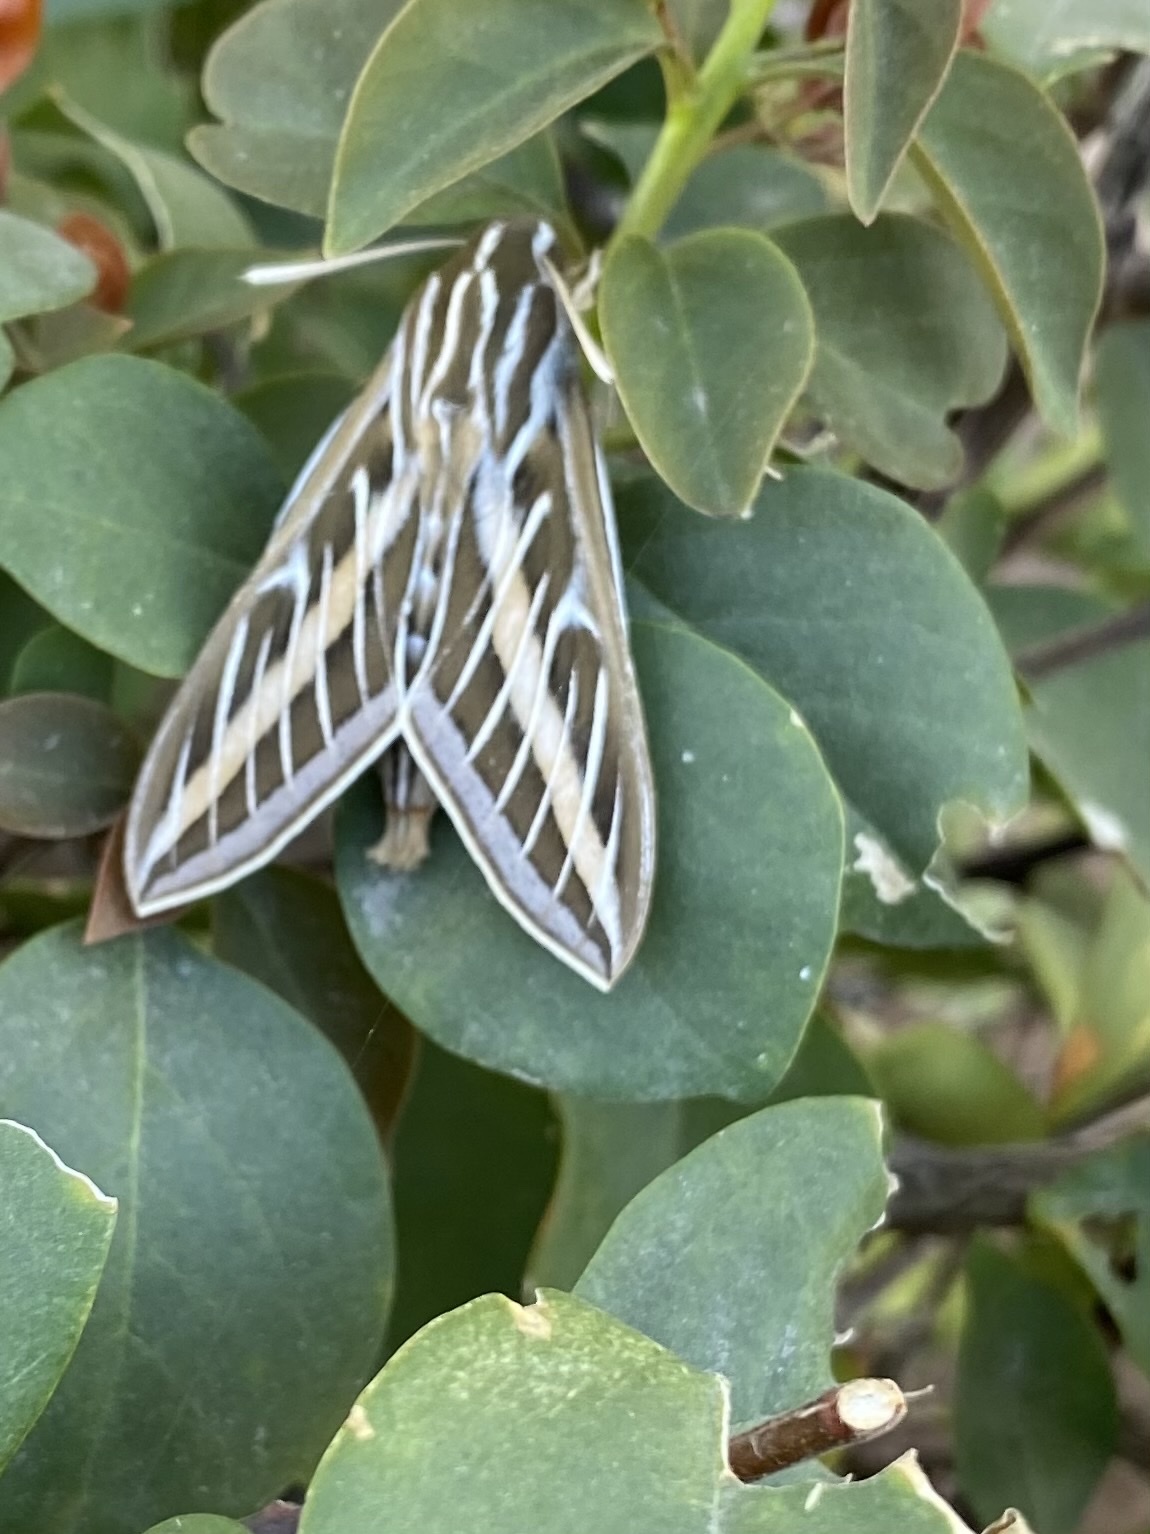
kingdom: Animalia
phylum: Arthropoda
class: Insecta
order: Lepidoptera
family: Sphingidae
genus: Hyles
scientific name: Hyles lineata
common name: White-lined sphinx
